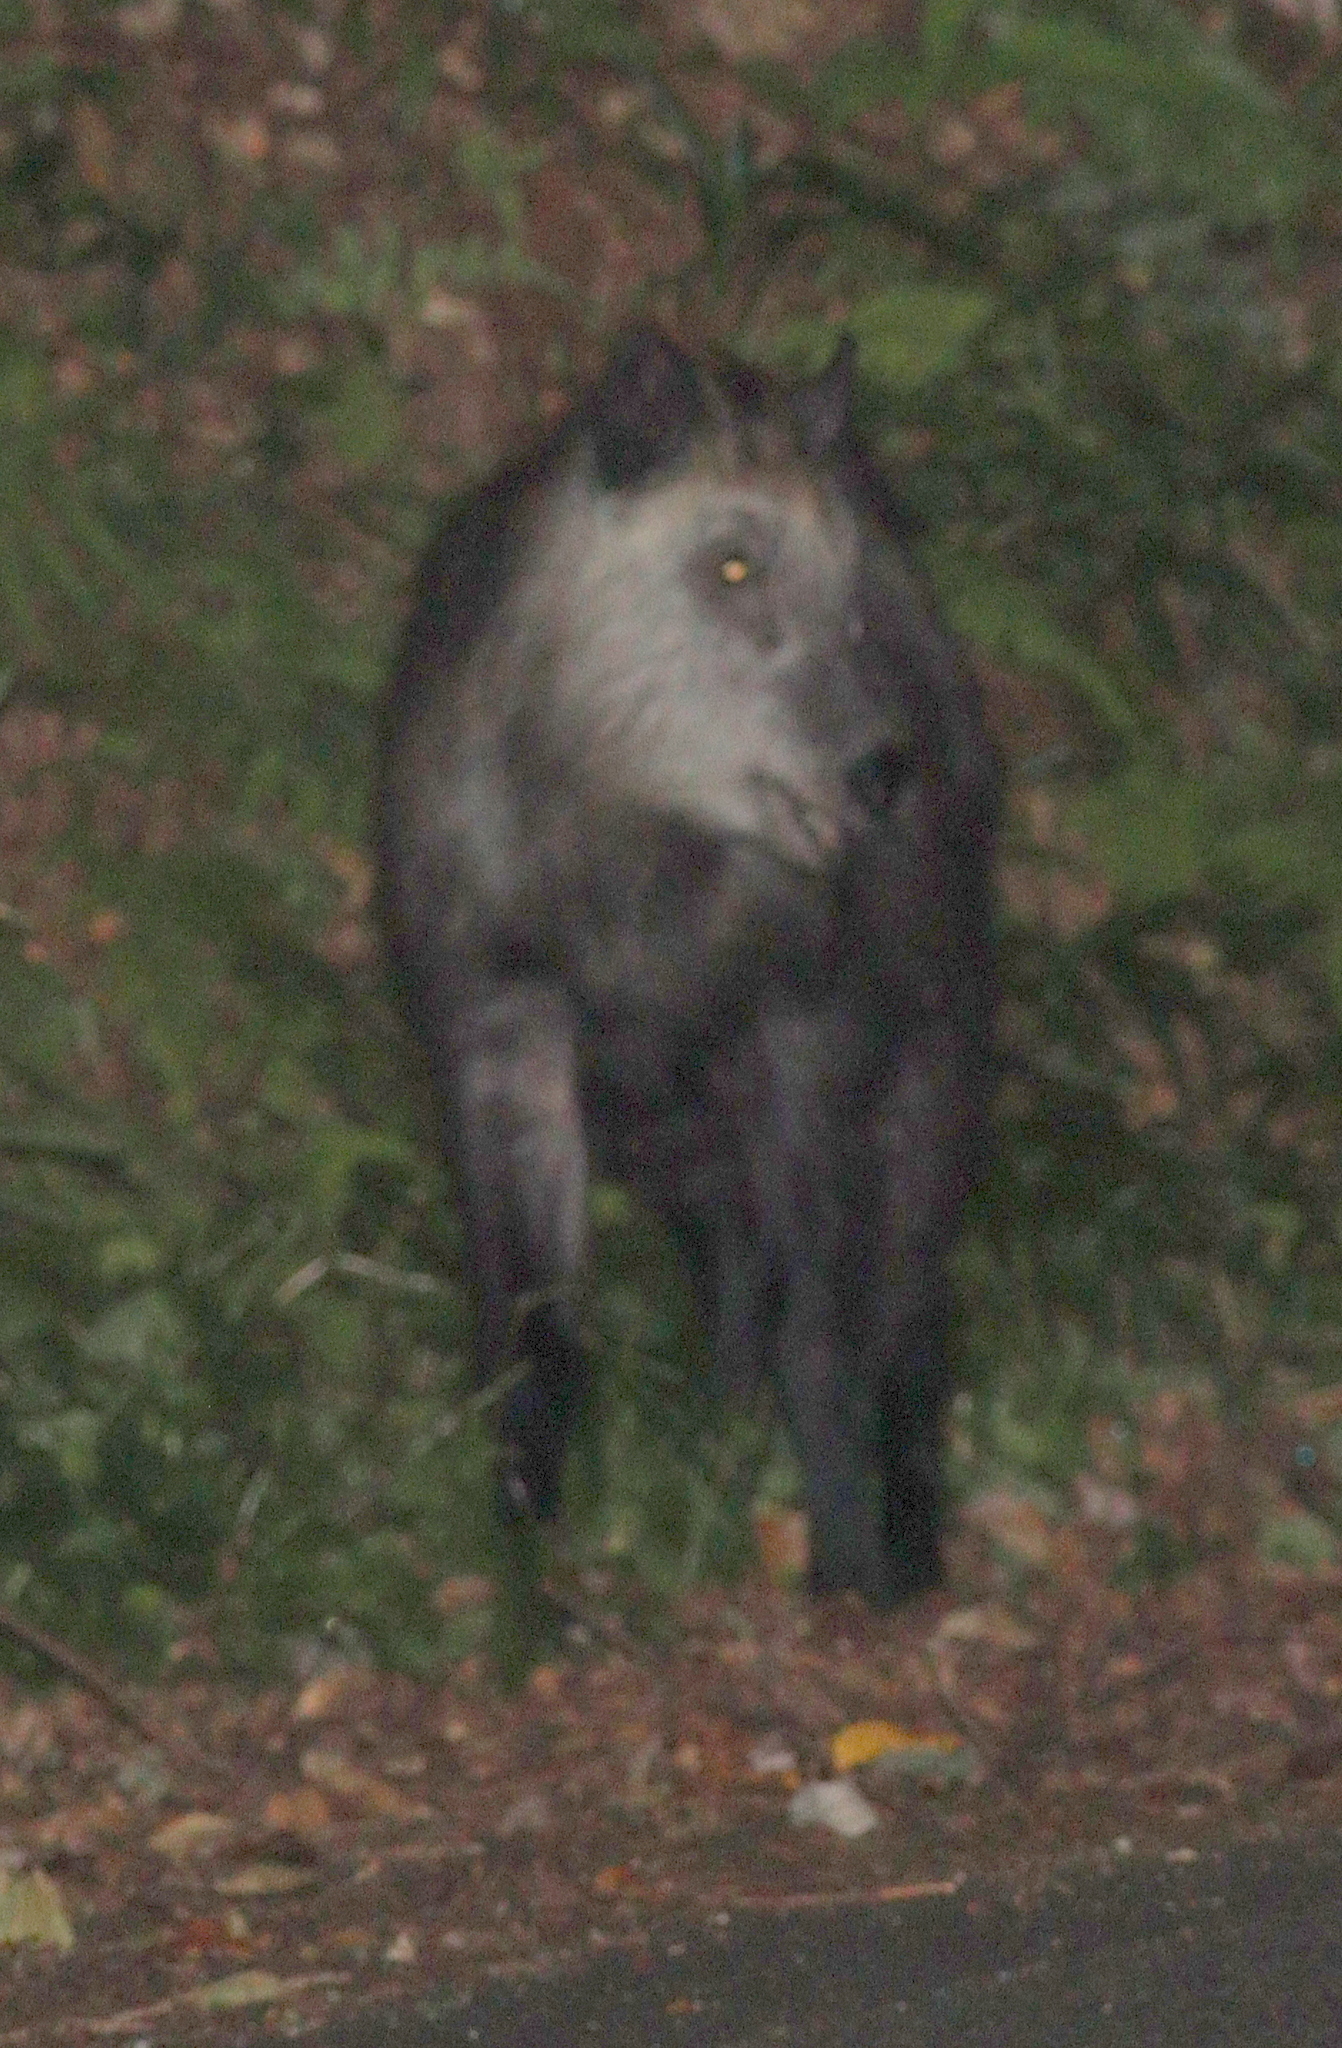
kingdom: Animalia
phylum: Chordata
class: Mammalia
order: Artiodactyla
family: Bovidae
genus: Capricornis
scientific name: Capricornis crispus
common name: Japanese serow
